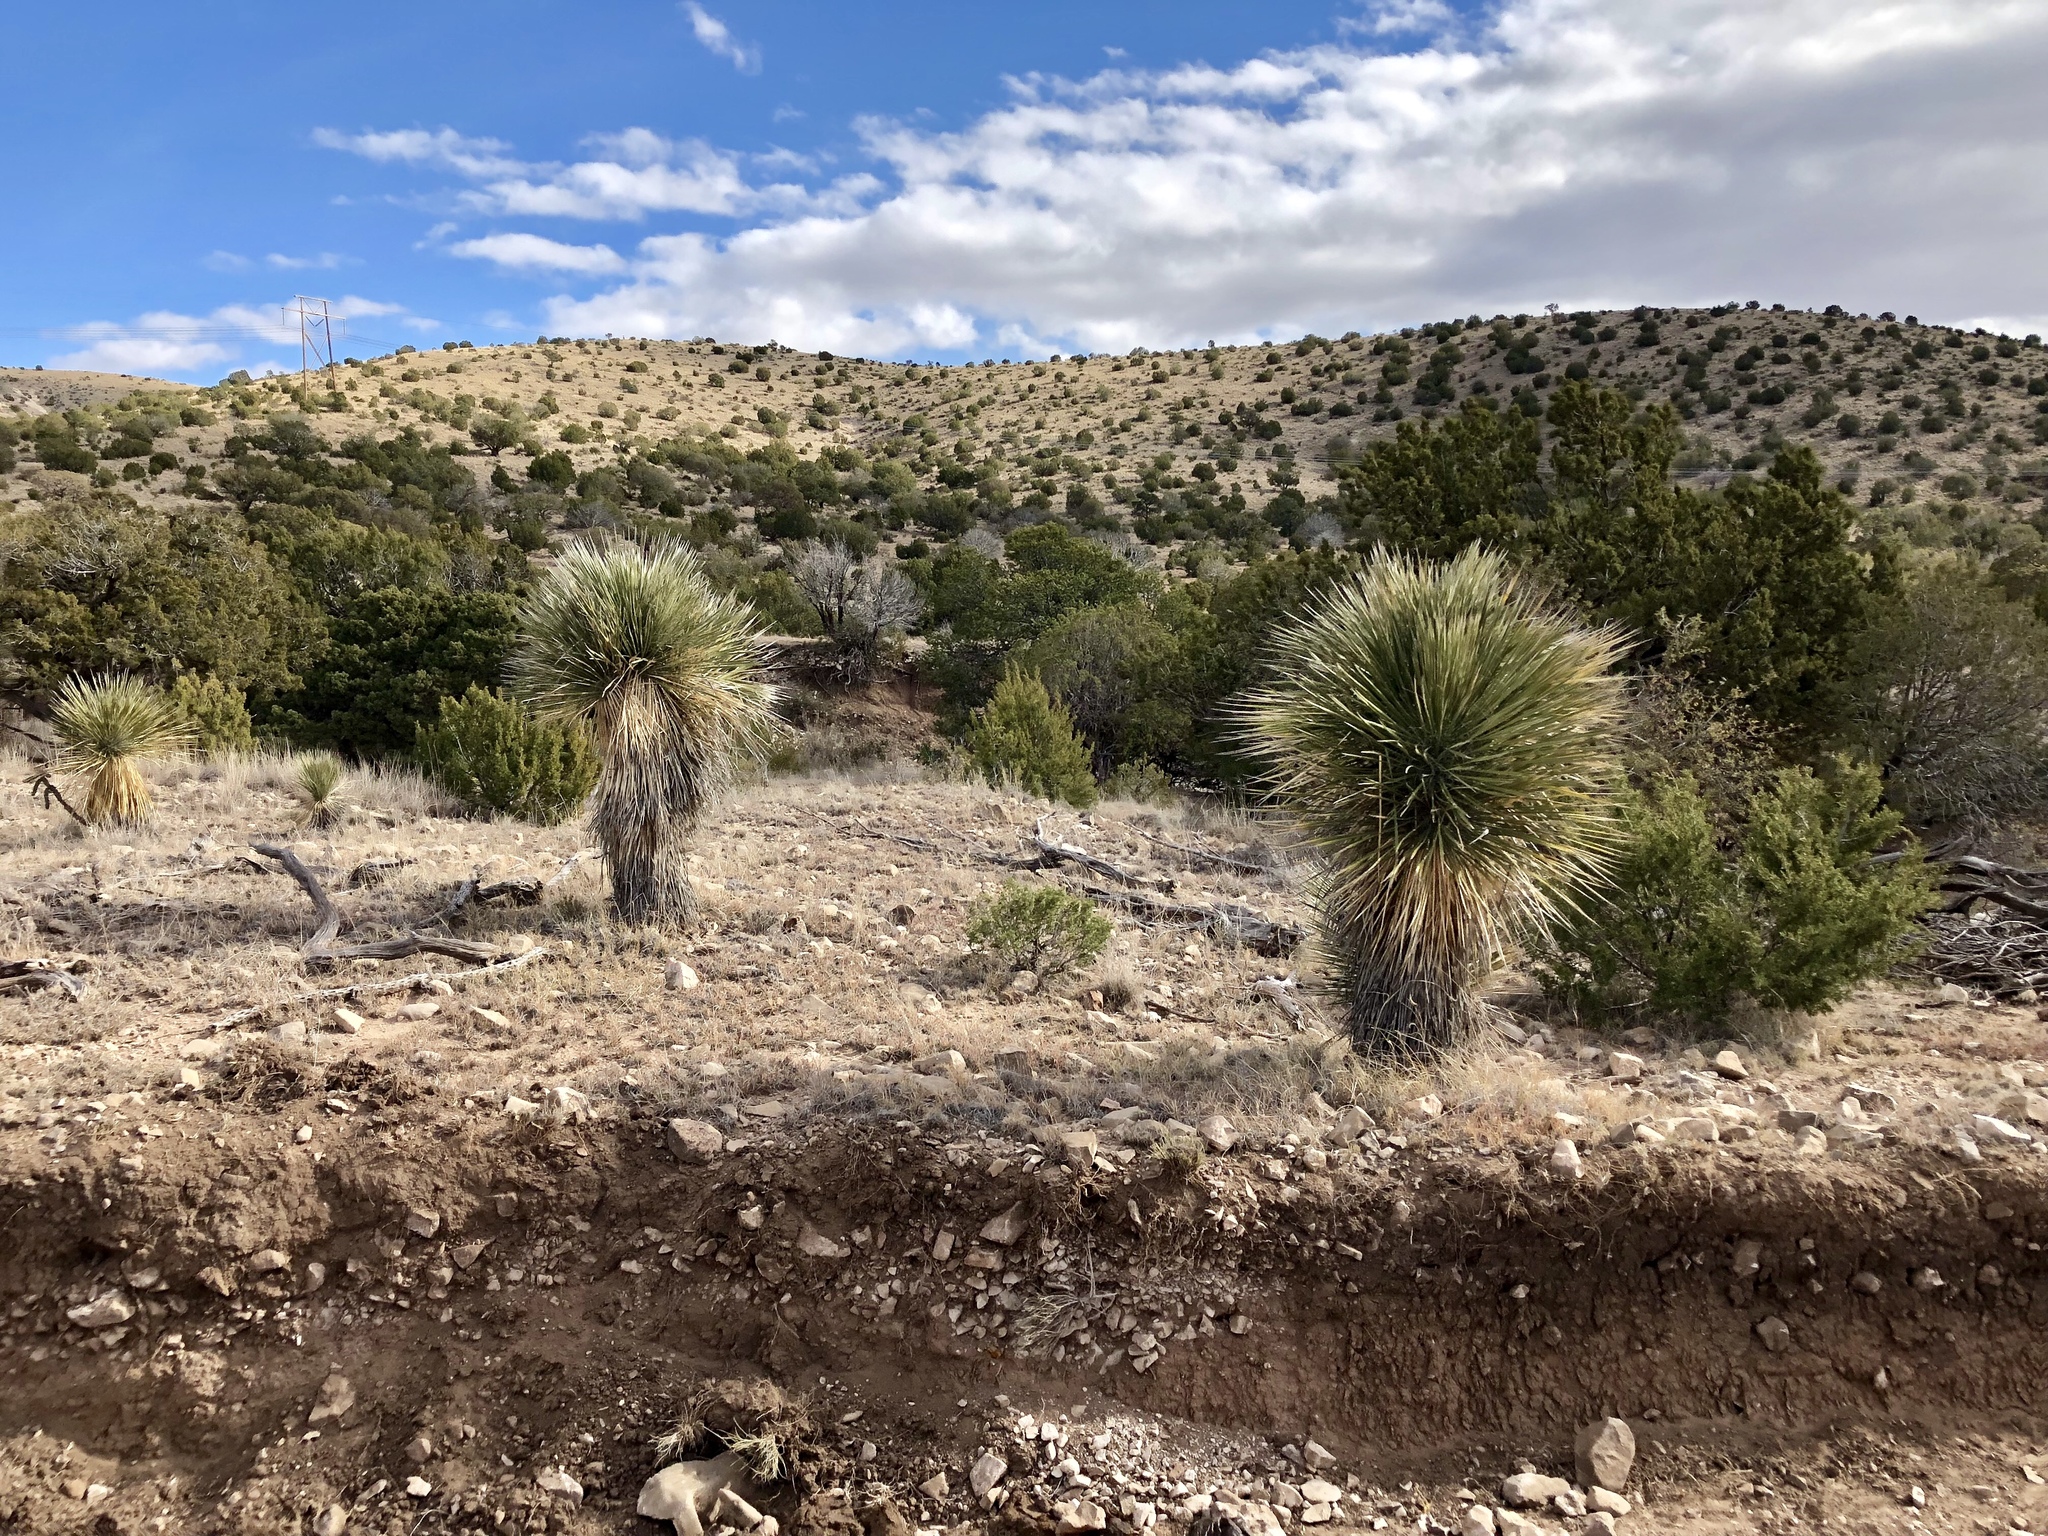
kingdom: Plantae
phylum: Tracheophyta
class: Liliopsida
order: Asparagales
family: Asparagaceae
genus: Yucca
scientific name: Yucca elata
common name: Palmella
